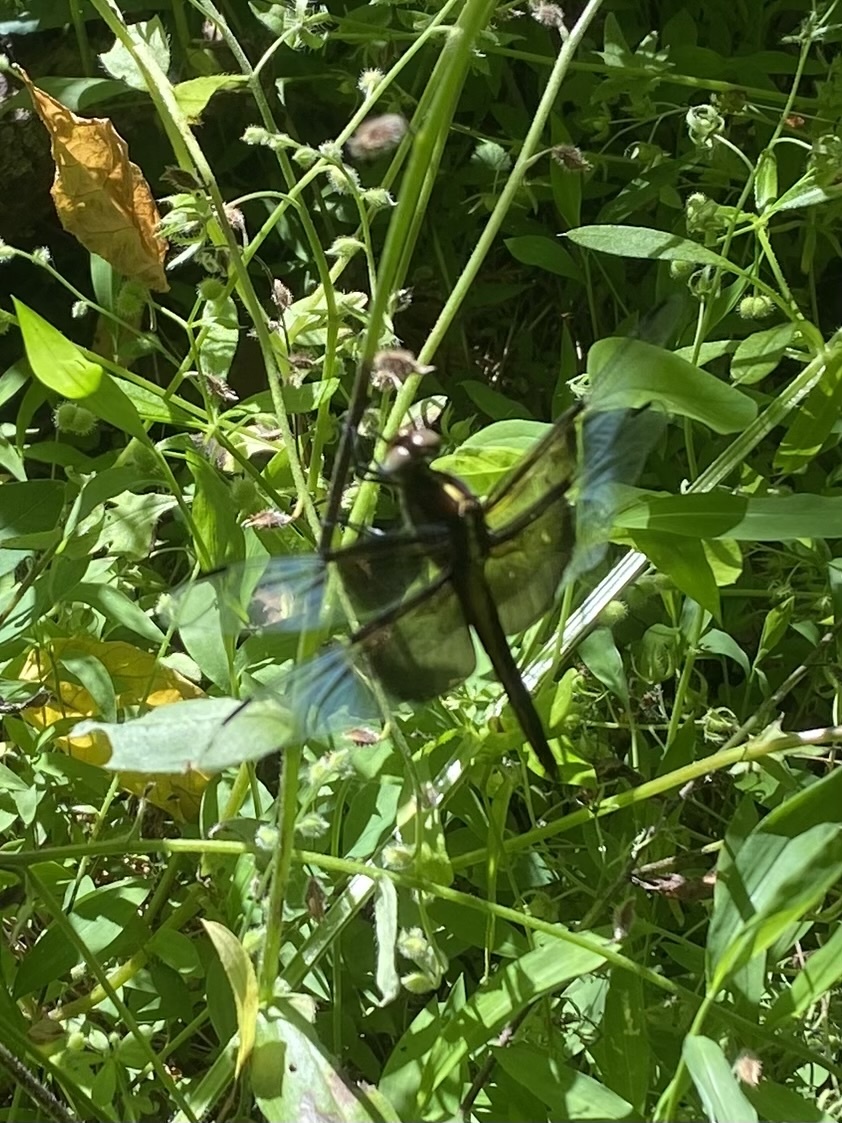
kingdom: Animalia
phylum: Arthropoda
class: Insecta
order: Odonata
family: Libellulidae
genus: Libellula
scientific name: Libellula luctuosa
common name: Widow skimmer
